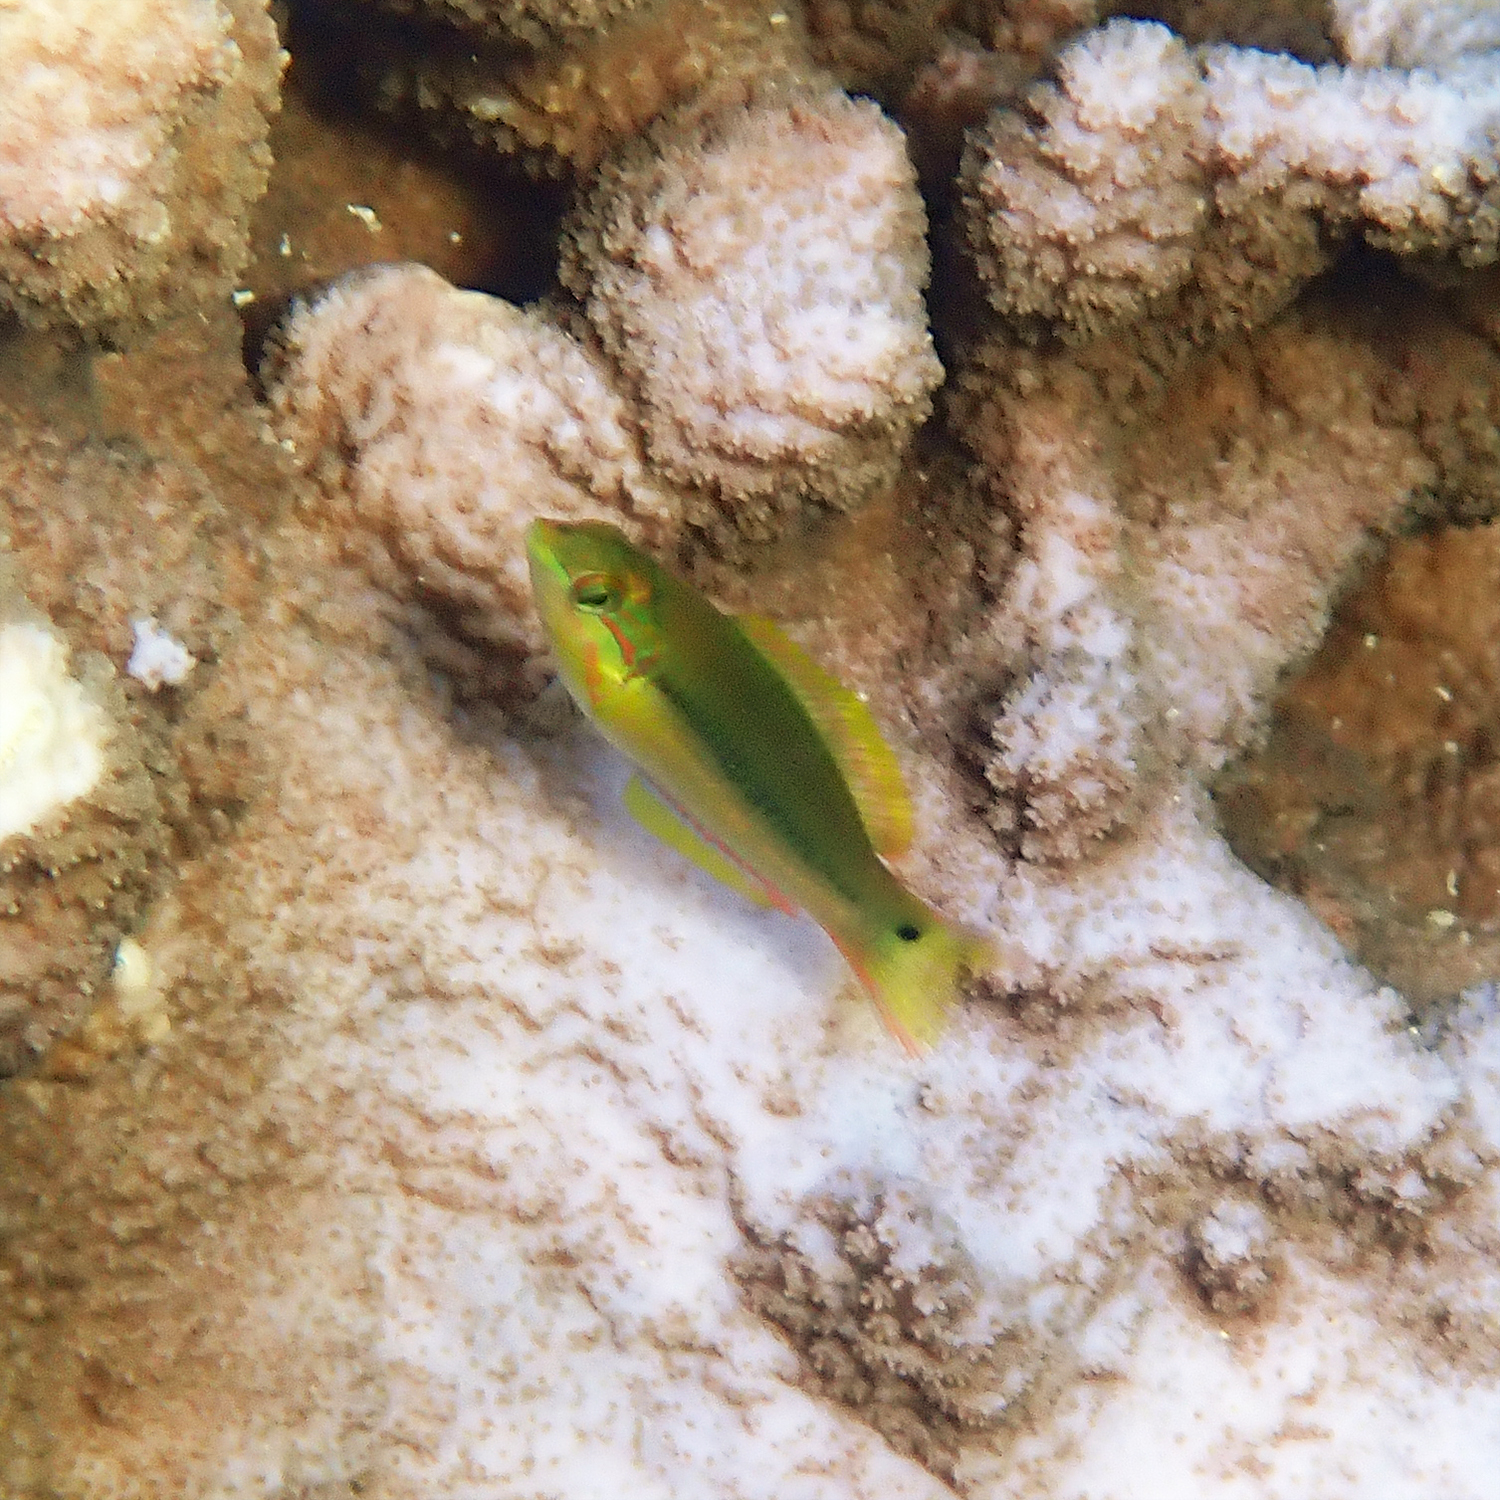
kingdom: Animalia
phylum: Chordata
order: Perciformes
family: Labridae
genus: Thalassoma
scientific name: Thalassoma lutescens
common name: Green moon wrasse
